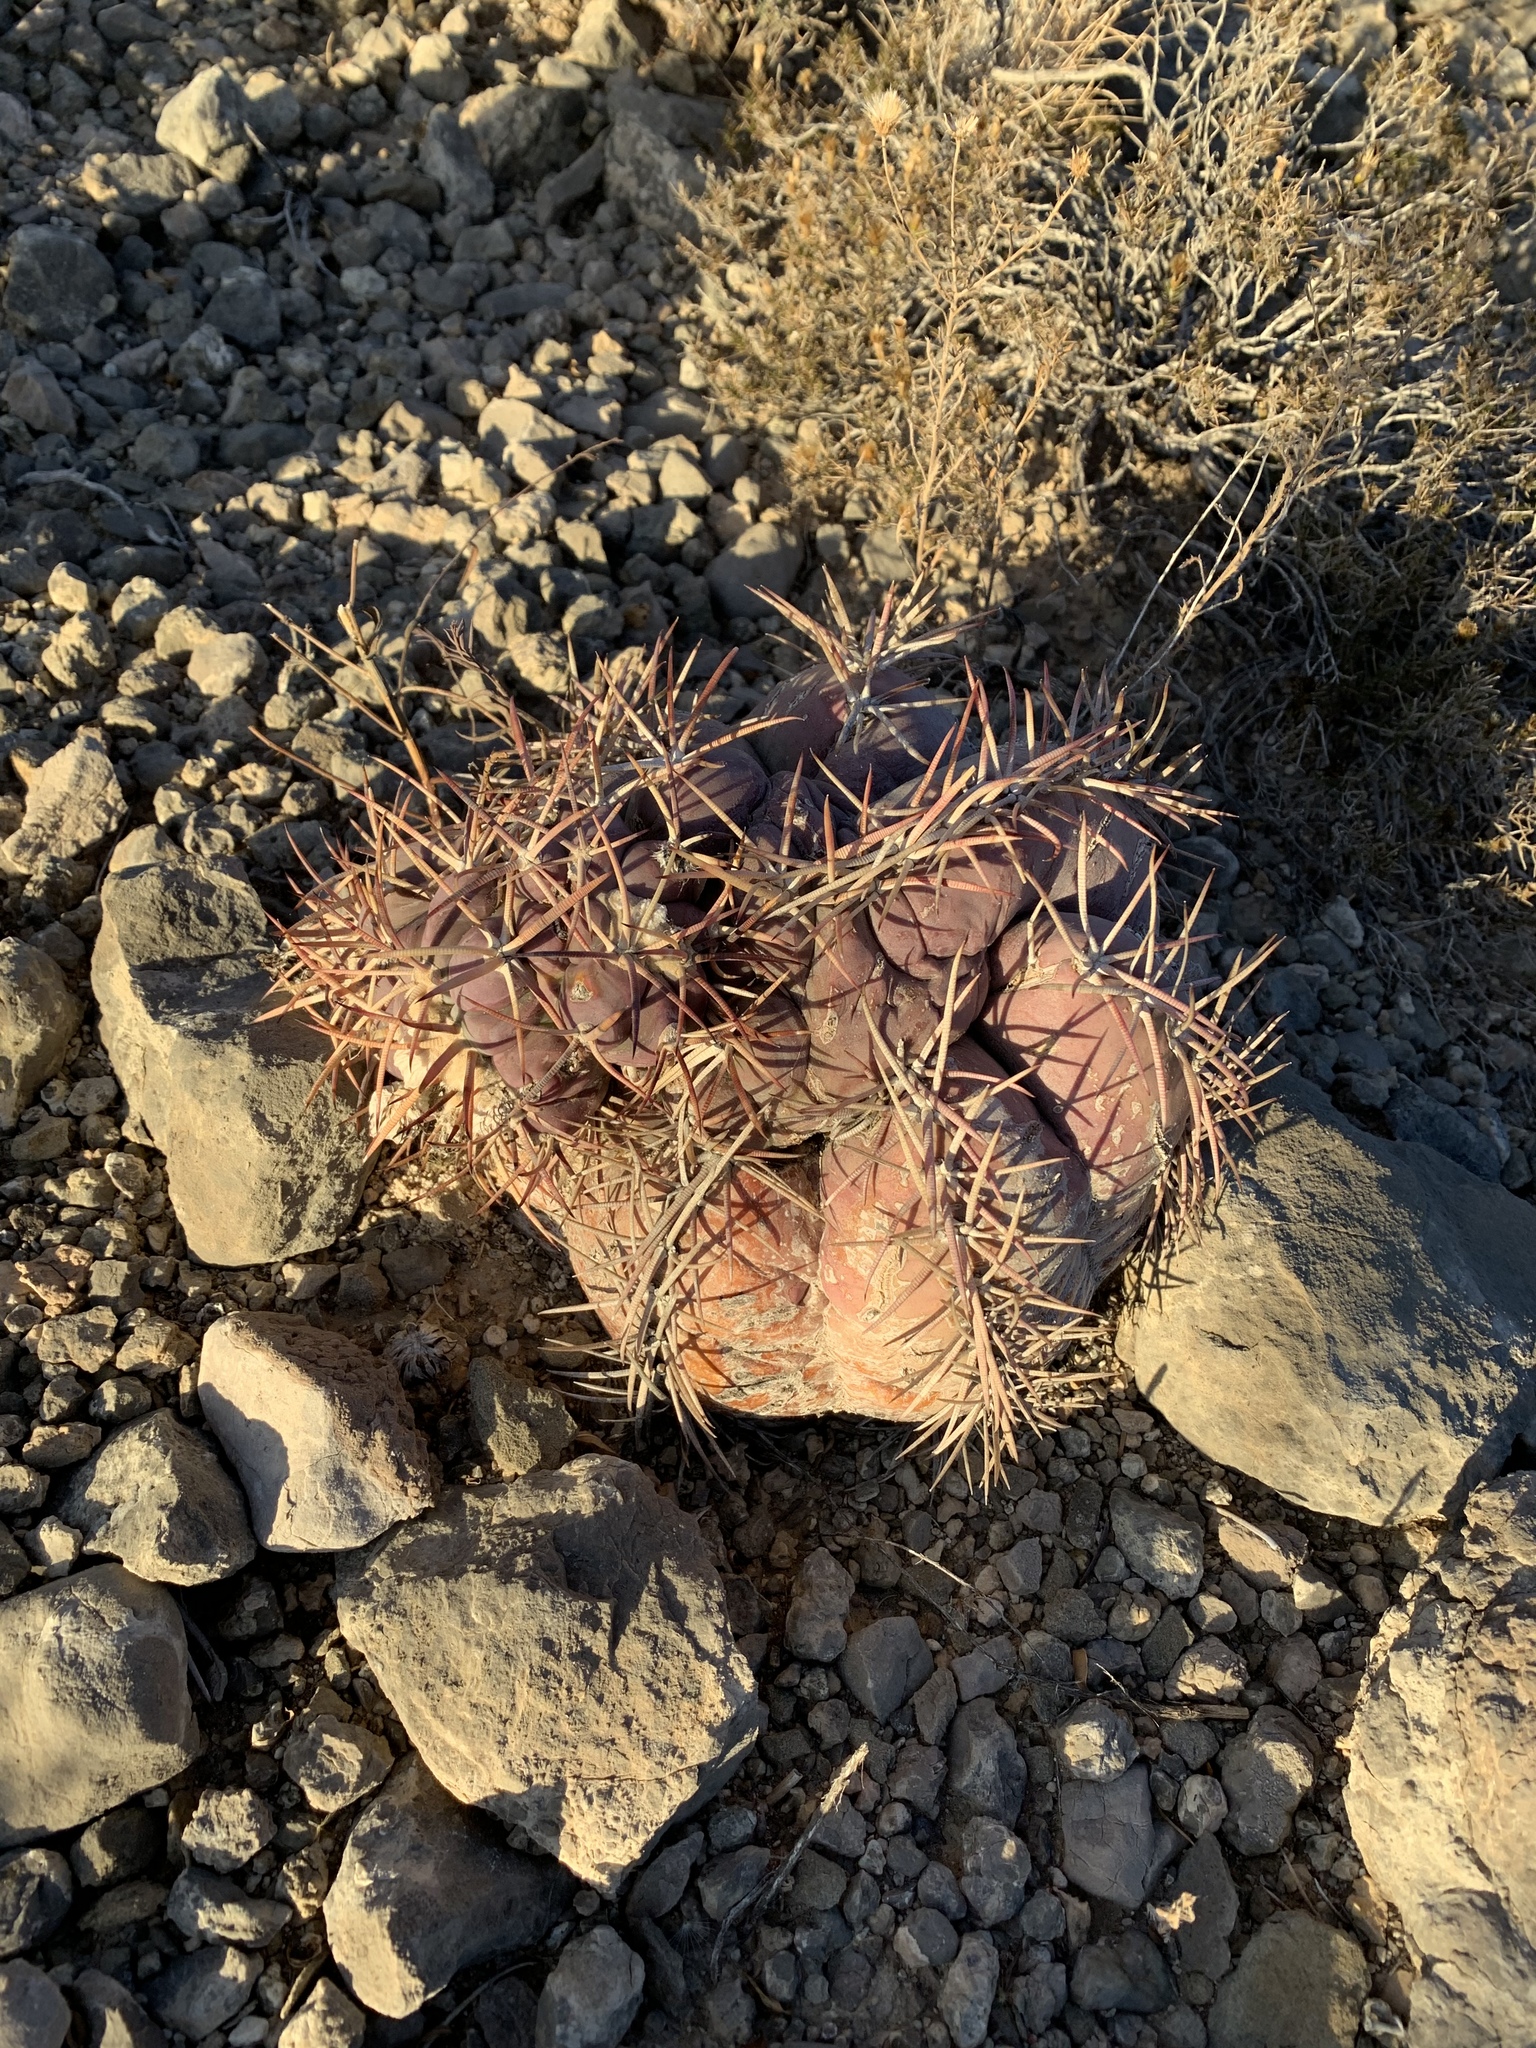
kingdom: Plantae
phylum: Tracheophyta
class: Magnoliopsida
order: Caryophyllales
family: Cactaceae
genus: Echinocactus
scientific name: Echinocactus horizonthalonius
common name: Devilshead
